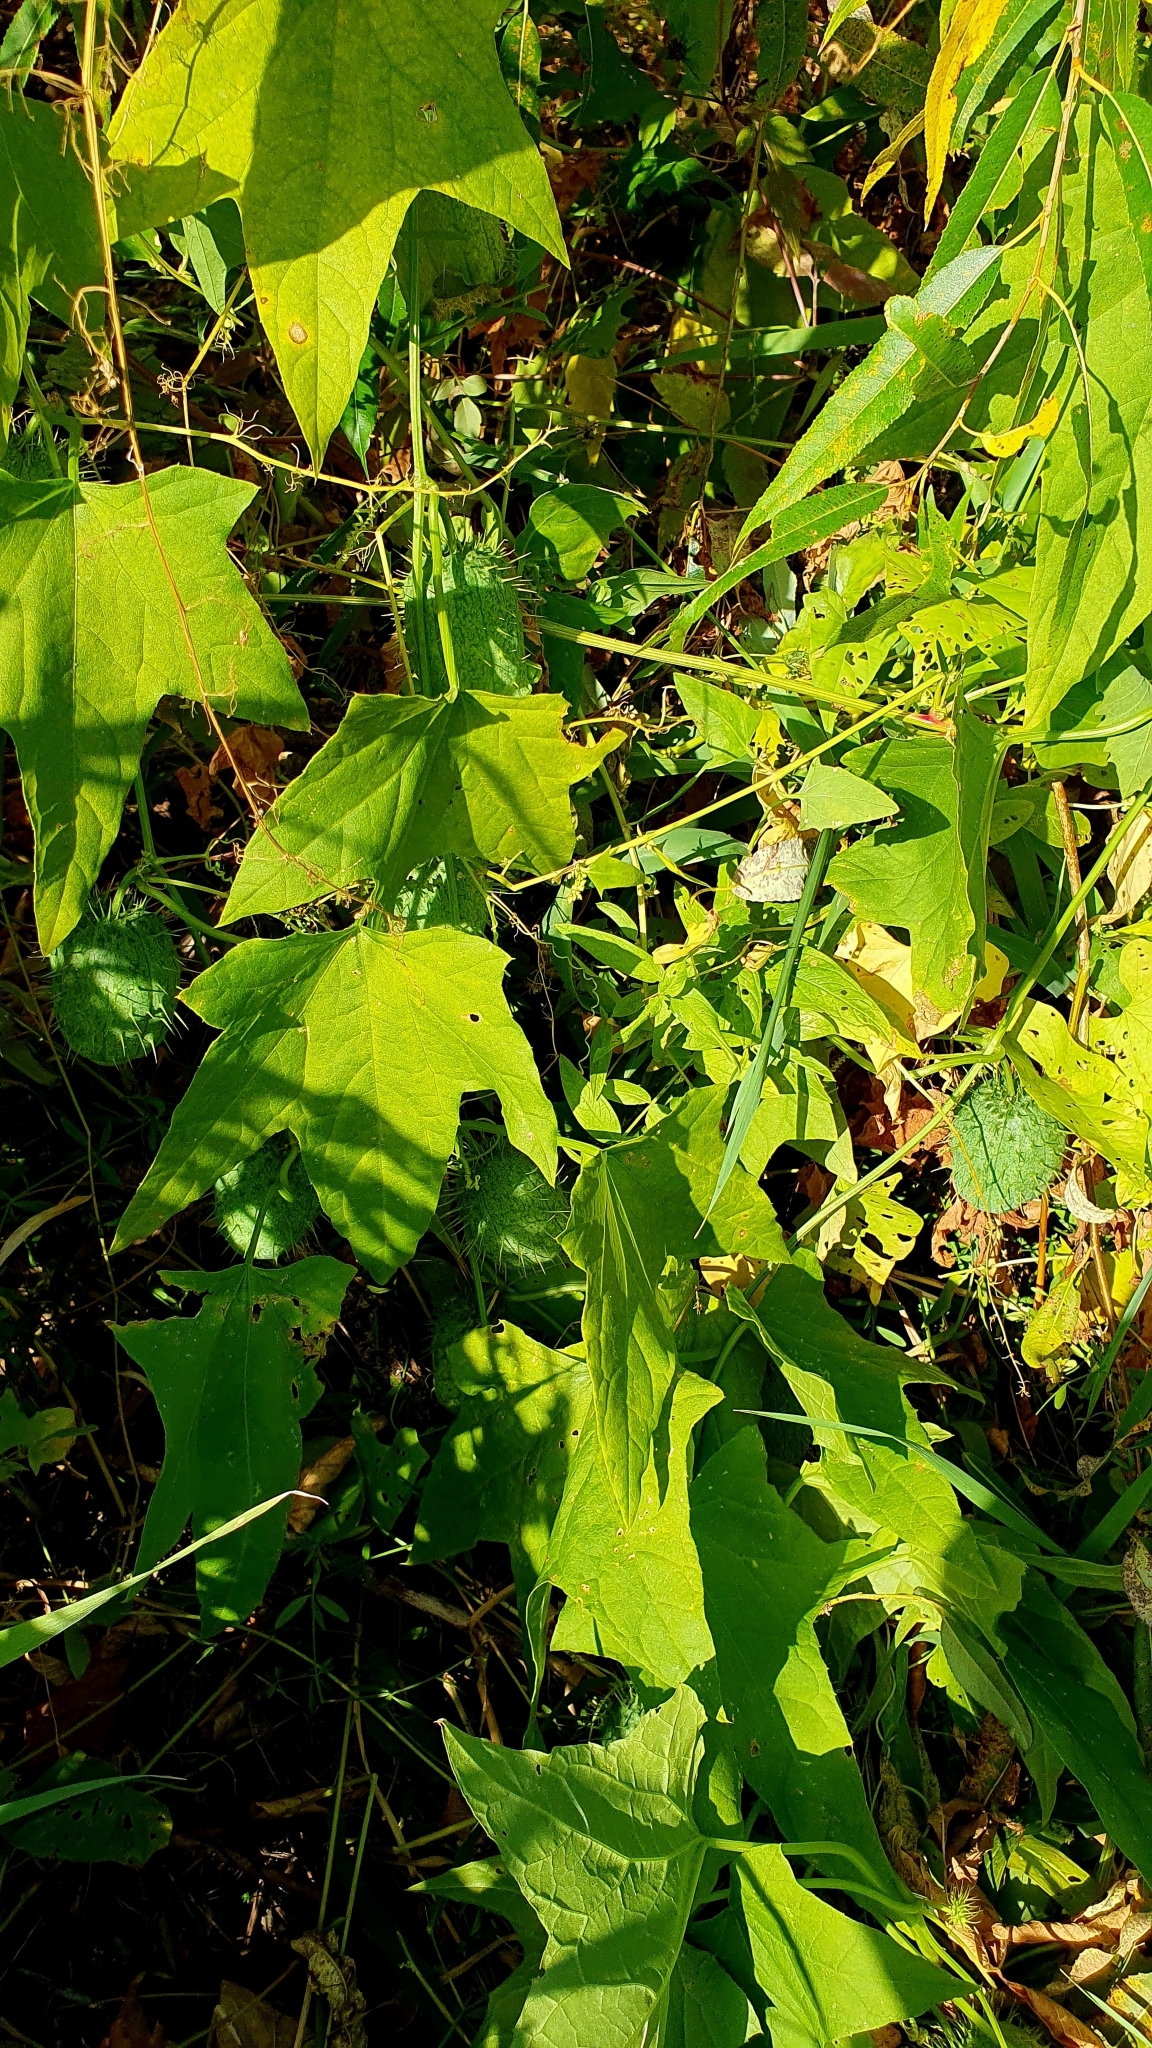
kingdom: Plantae
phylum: Tracheophyta
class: Magnoliopsida
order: Cucurbitales
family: Cucurbitaceae
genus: Echinocystis
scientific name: Echinocystis lobata
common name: Wild cucumber
